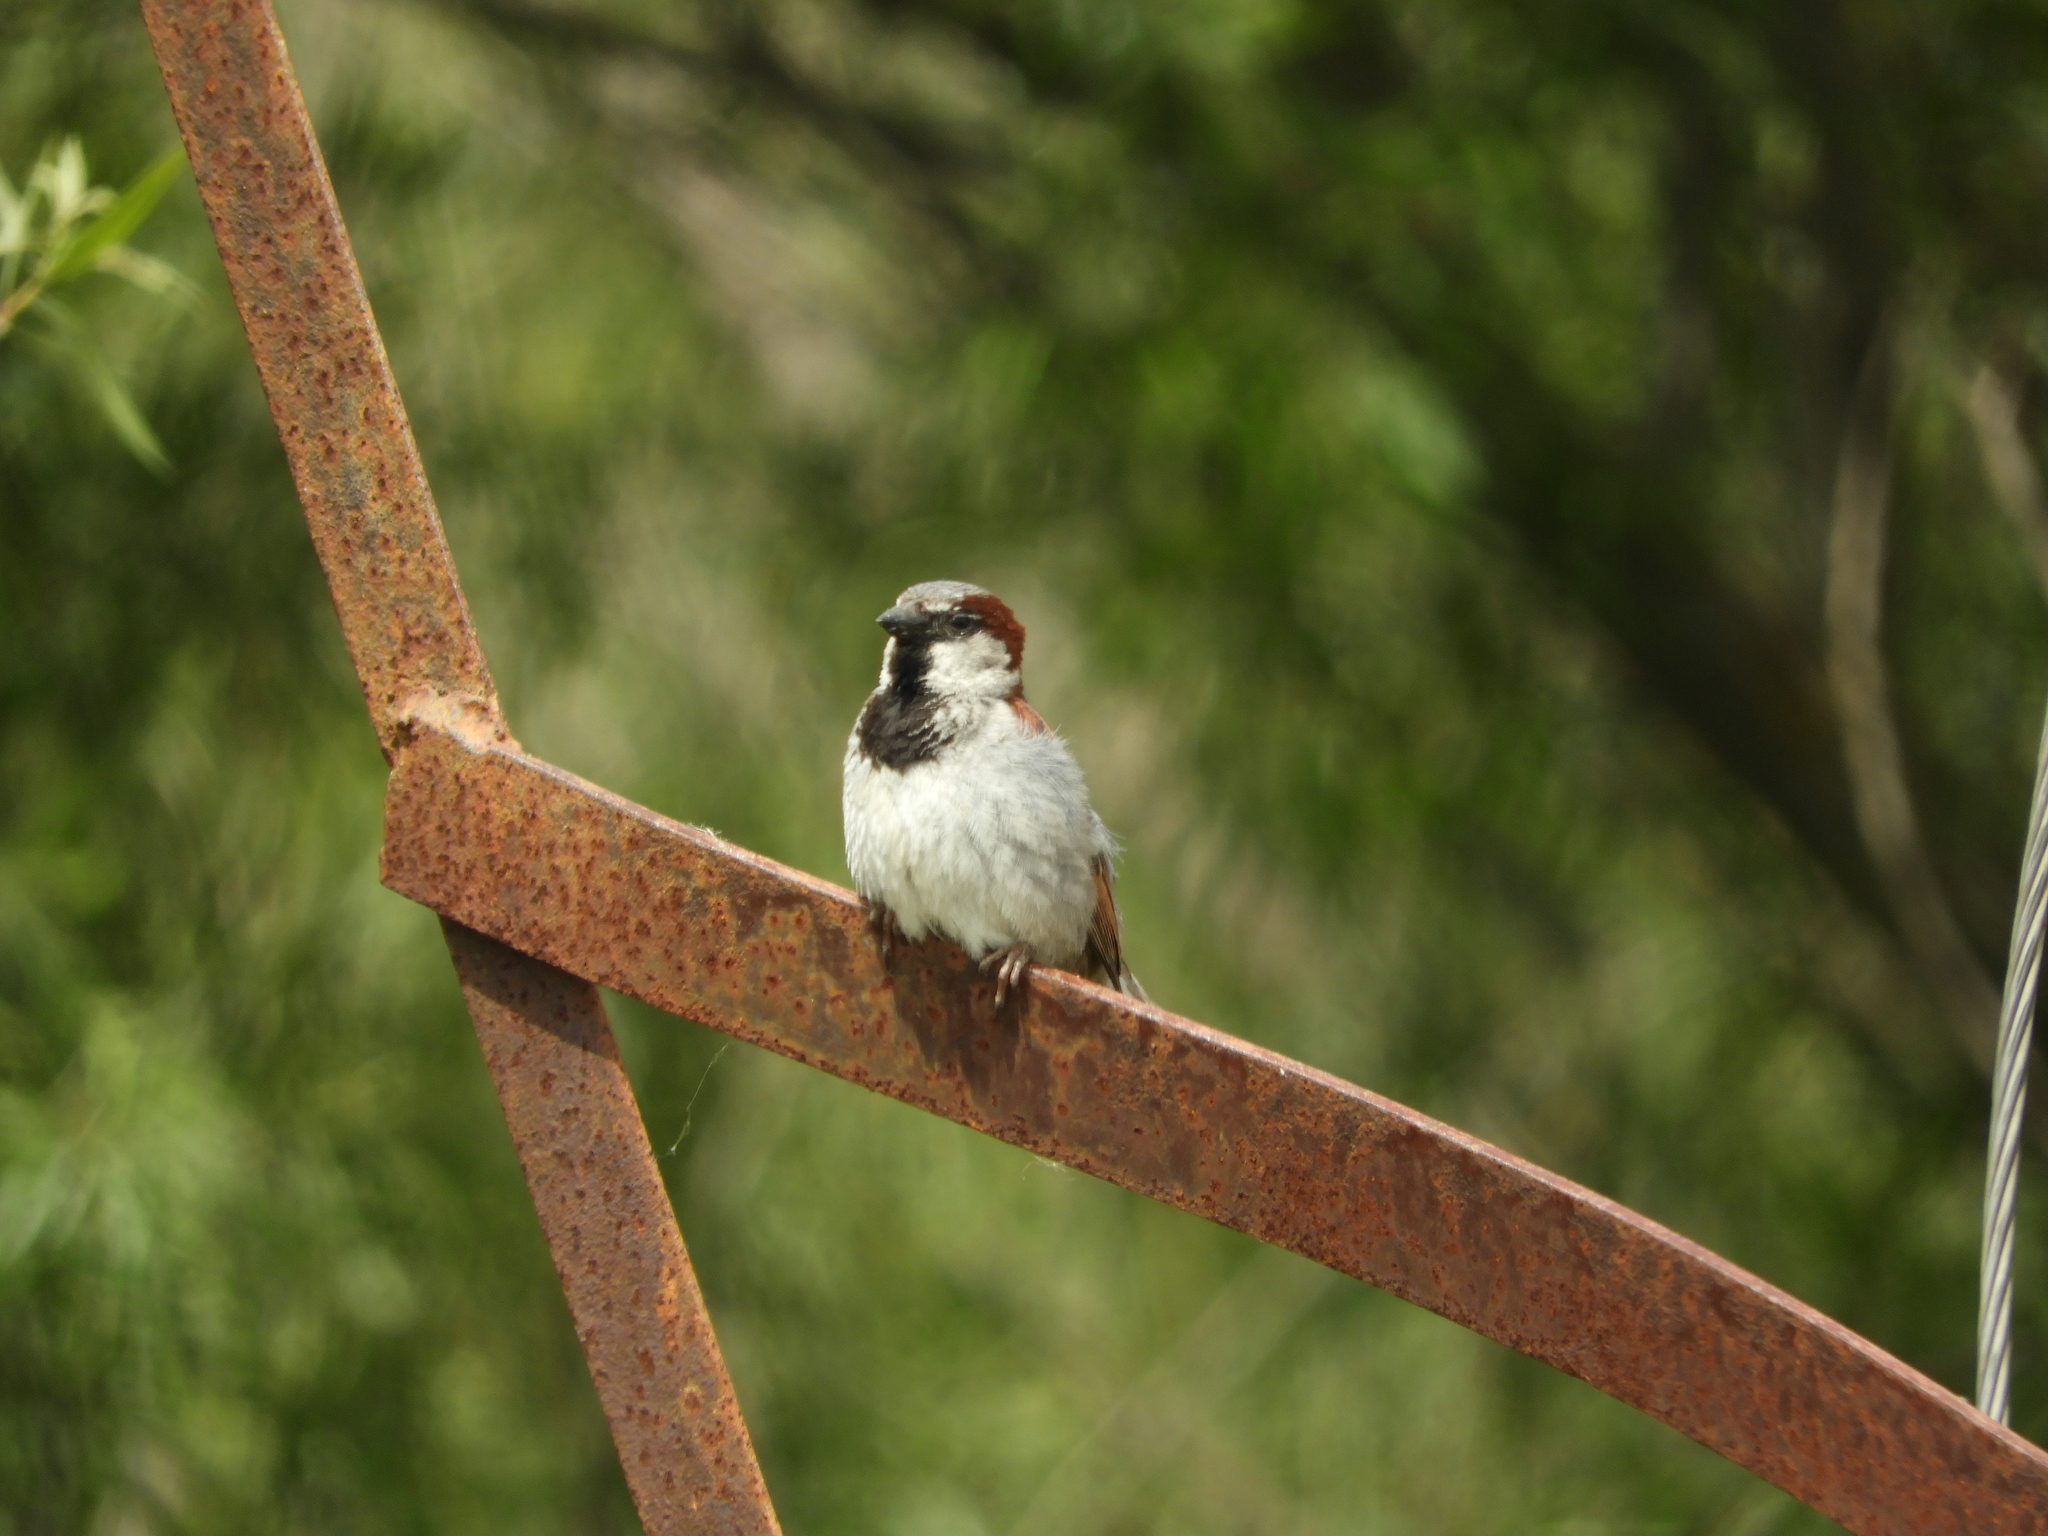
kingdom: Animalia
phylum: Chordata
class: Aves
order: Passeriformes
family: Passeridae
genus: Passer
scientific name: Passer domesticus
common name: House sparrow
